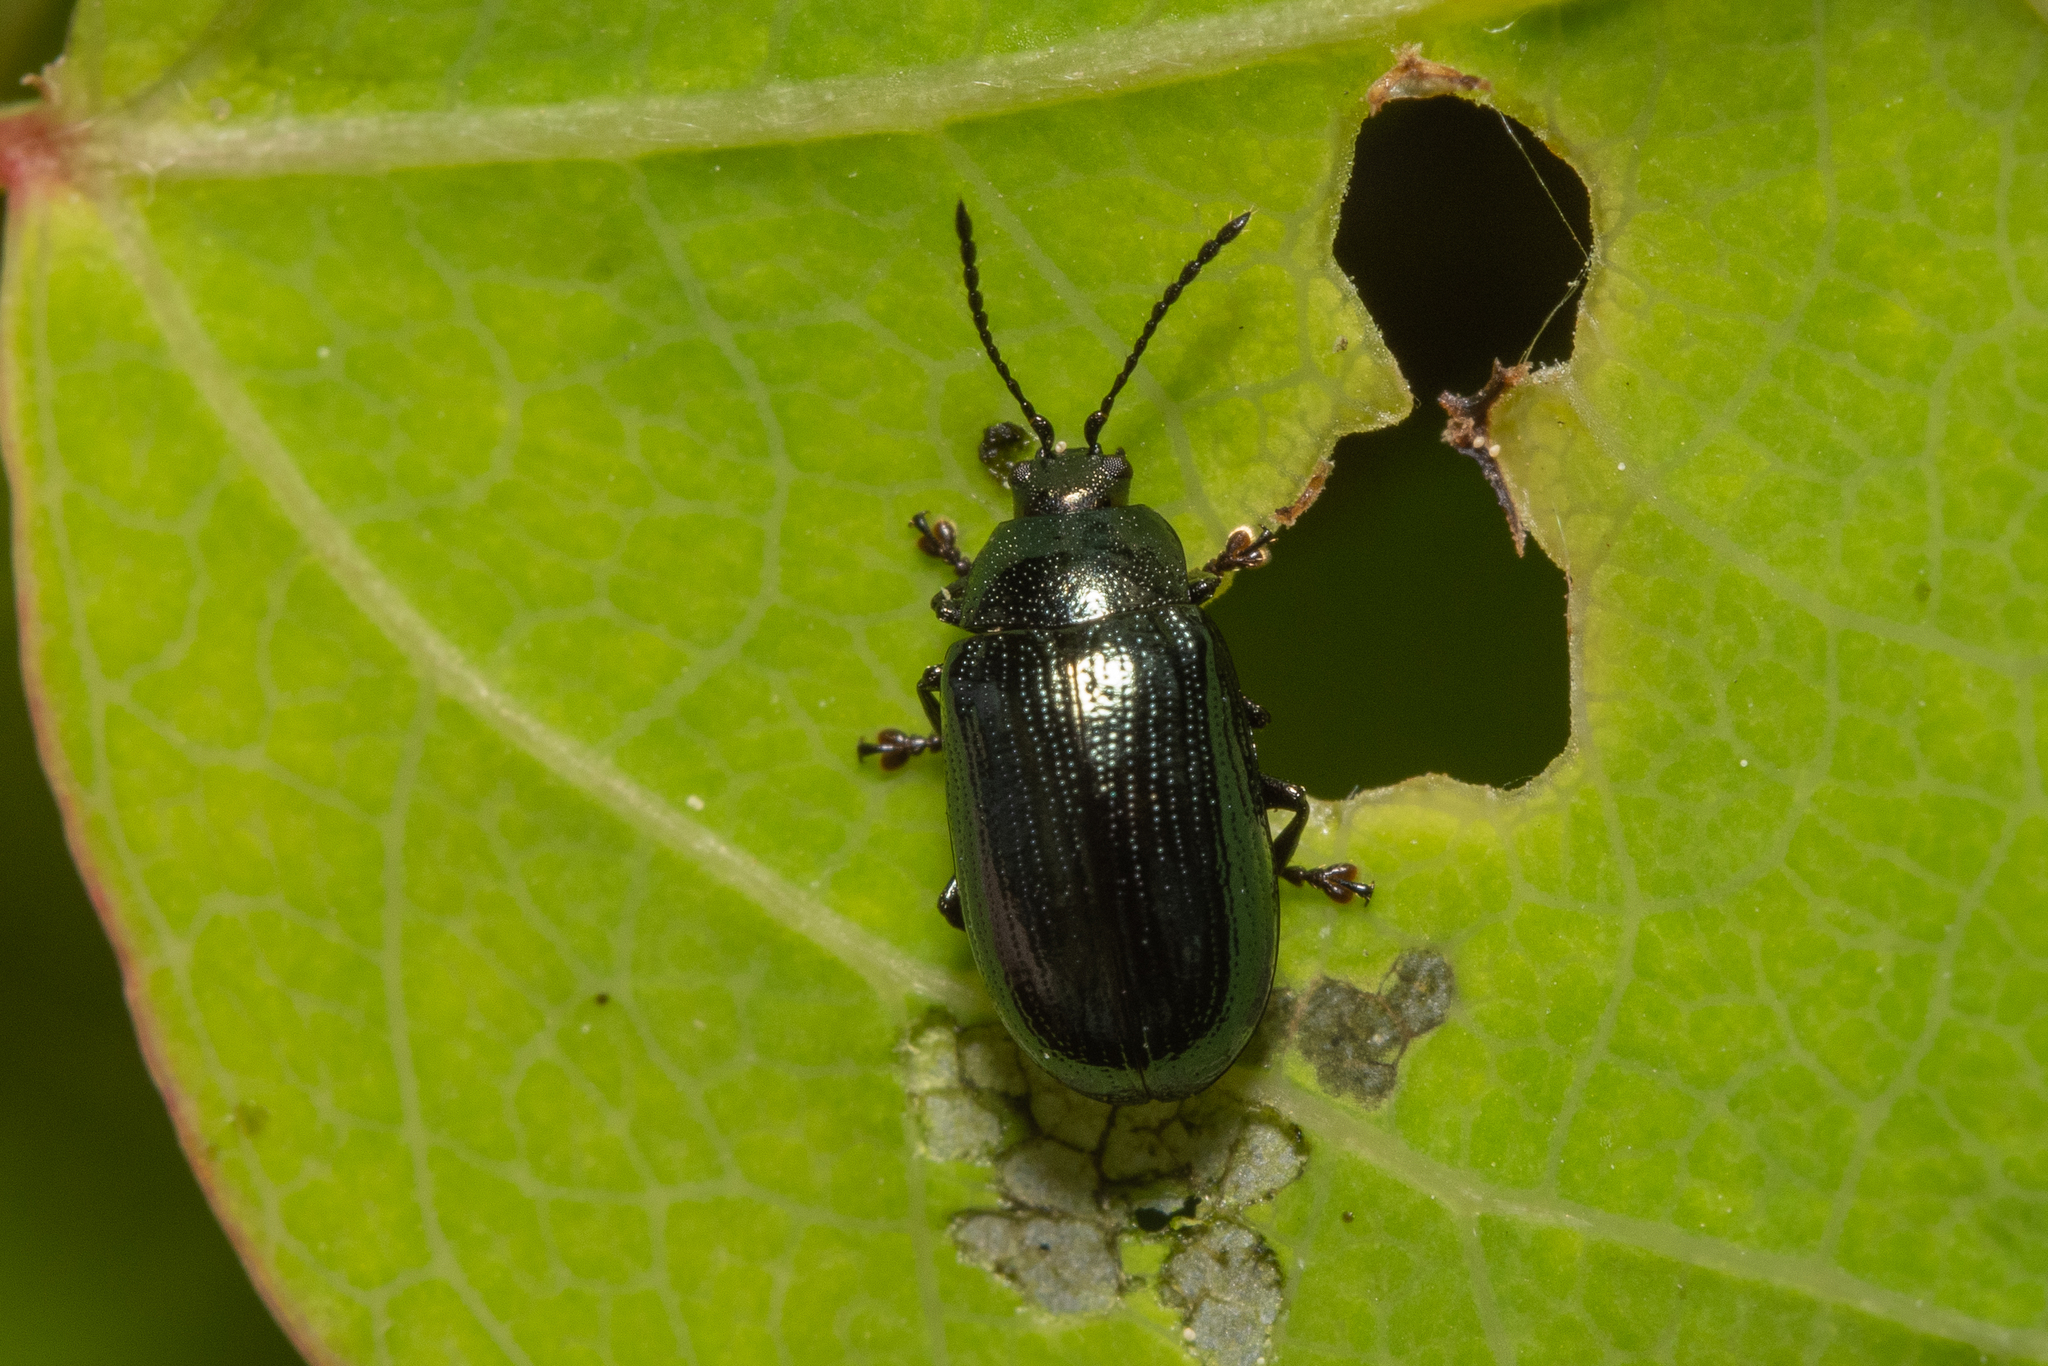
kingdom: Animalia
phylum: Arthropoda
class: Insecta
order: Coleoptera
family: Chrysomelidae
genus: Phratora
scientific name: Phratora laticollis
